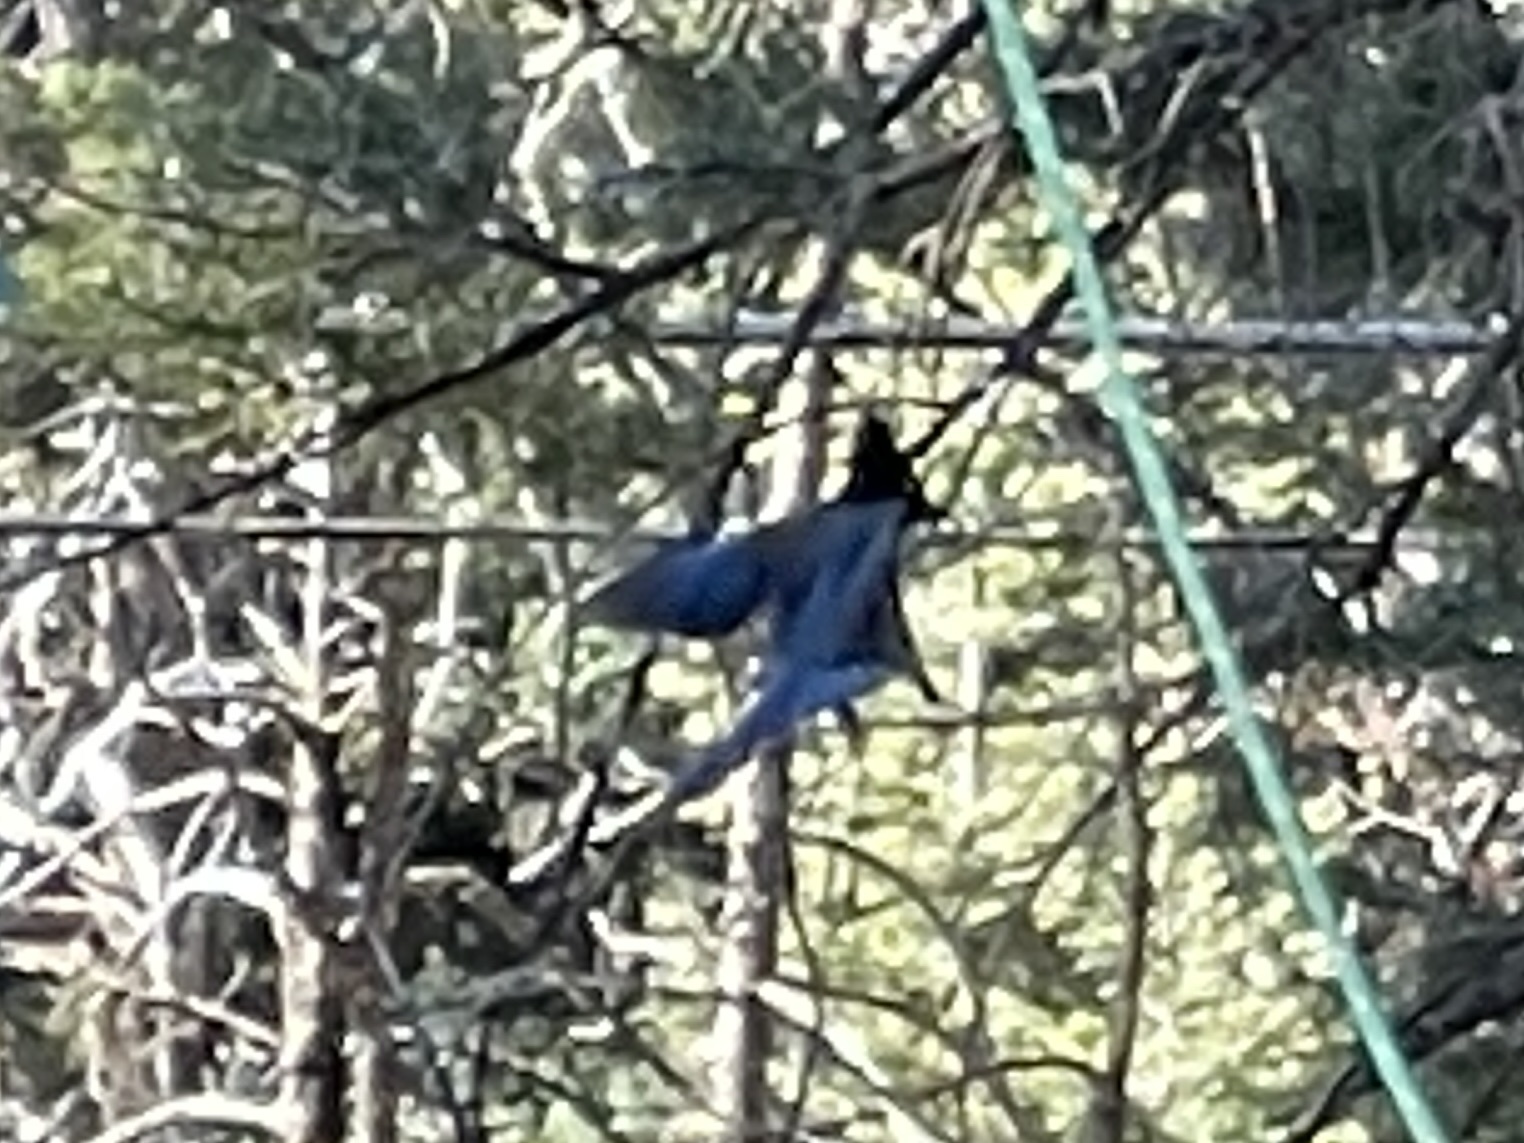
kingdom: Animalia
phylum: Chordata
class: Aves
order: Passeriformes
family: Corvidae
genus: Cyanocitta
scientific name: Cyanocitta stelleri
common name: Steller's jay
